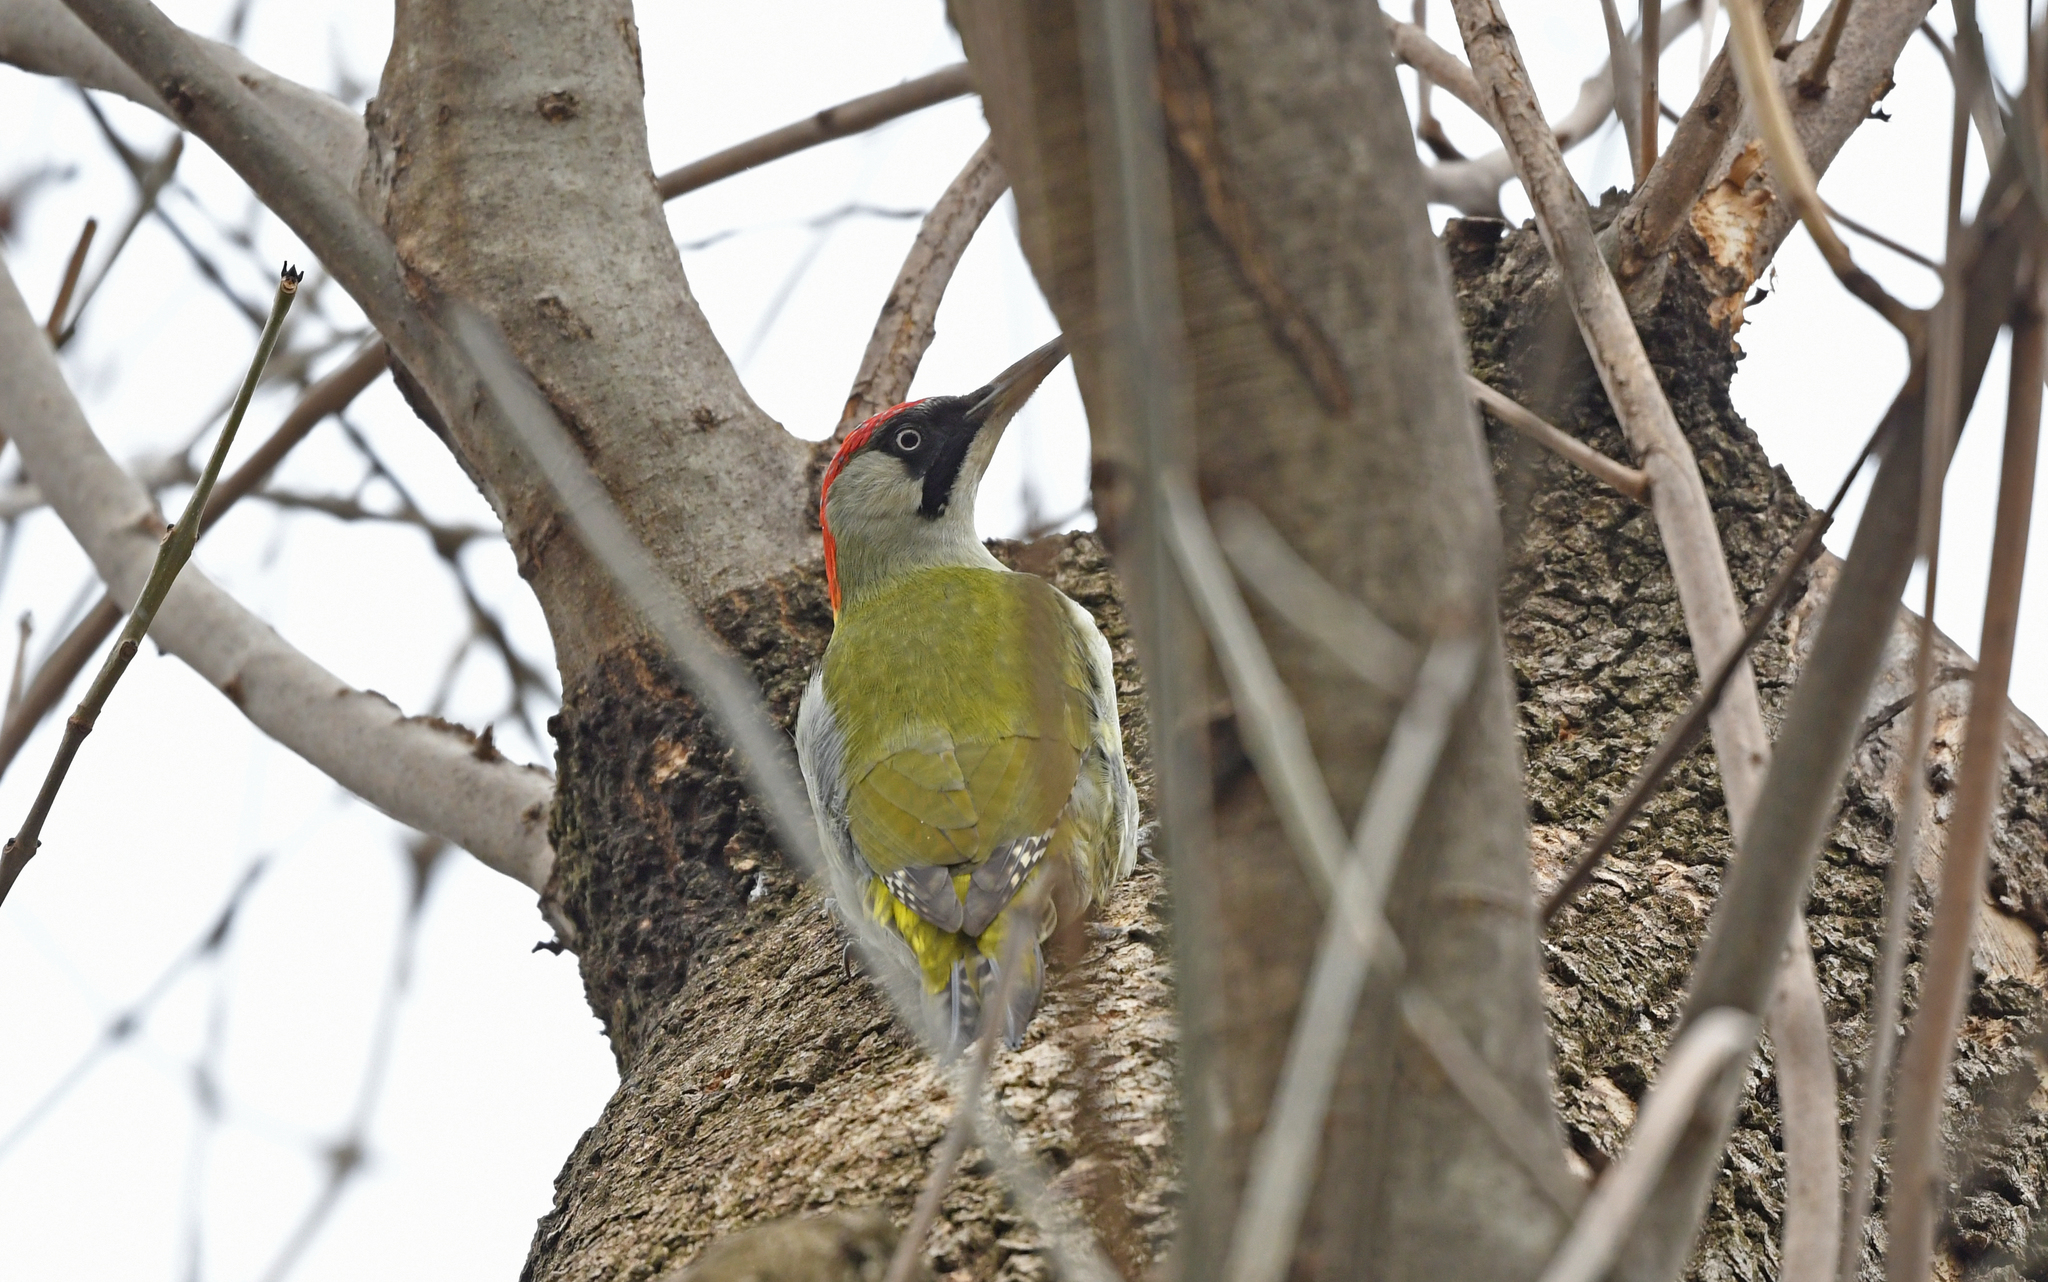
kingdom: Animalia
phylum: Chordata
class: Aves
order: Piciformes
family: Picidae
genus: Picus
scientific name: Picus viridis
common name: European green woodpecker
